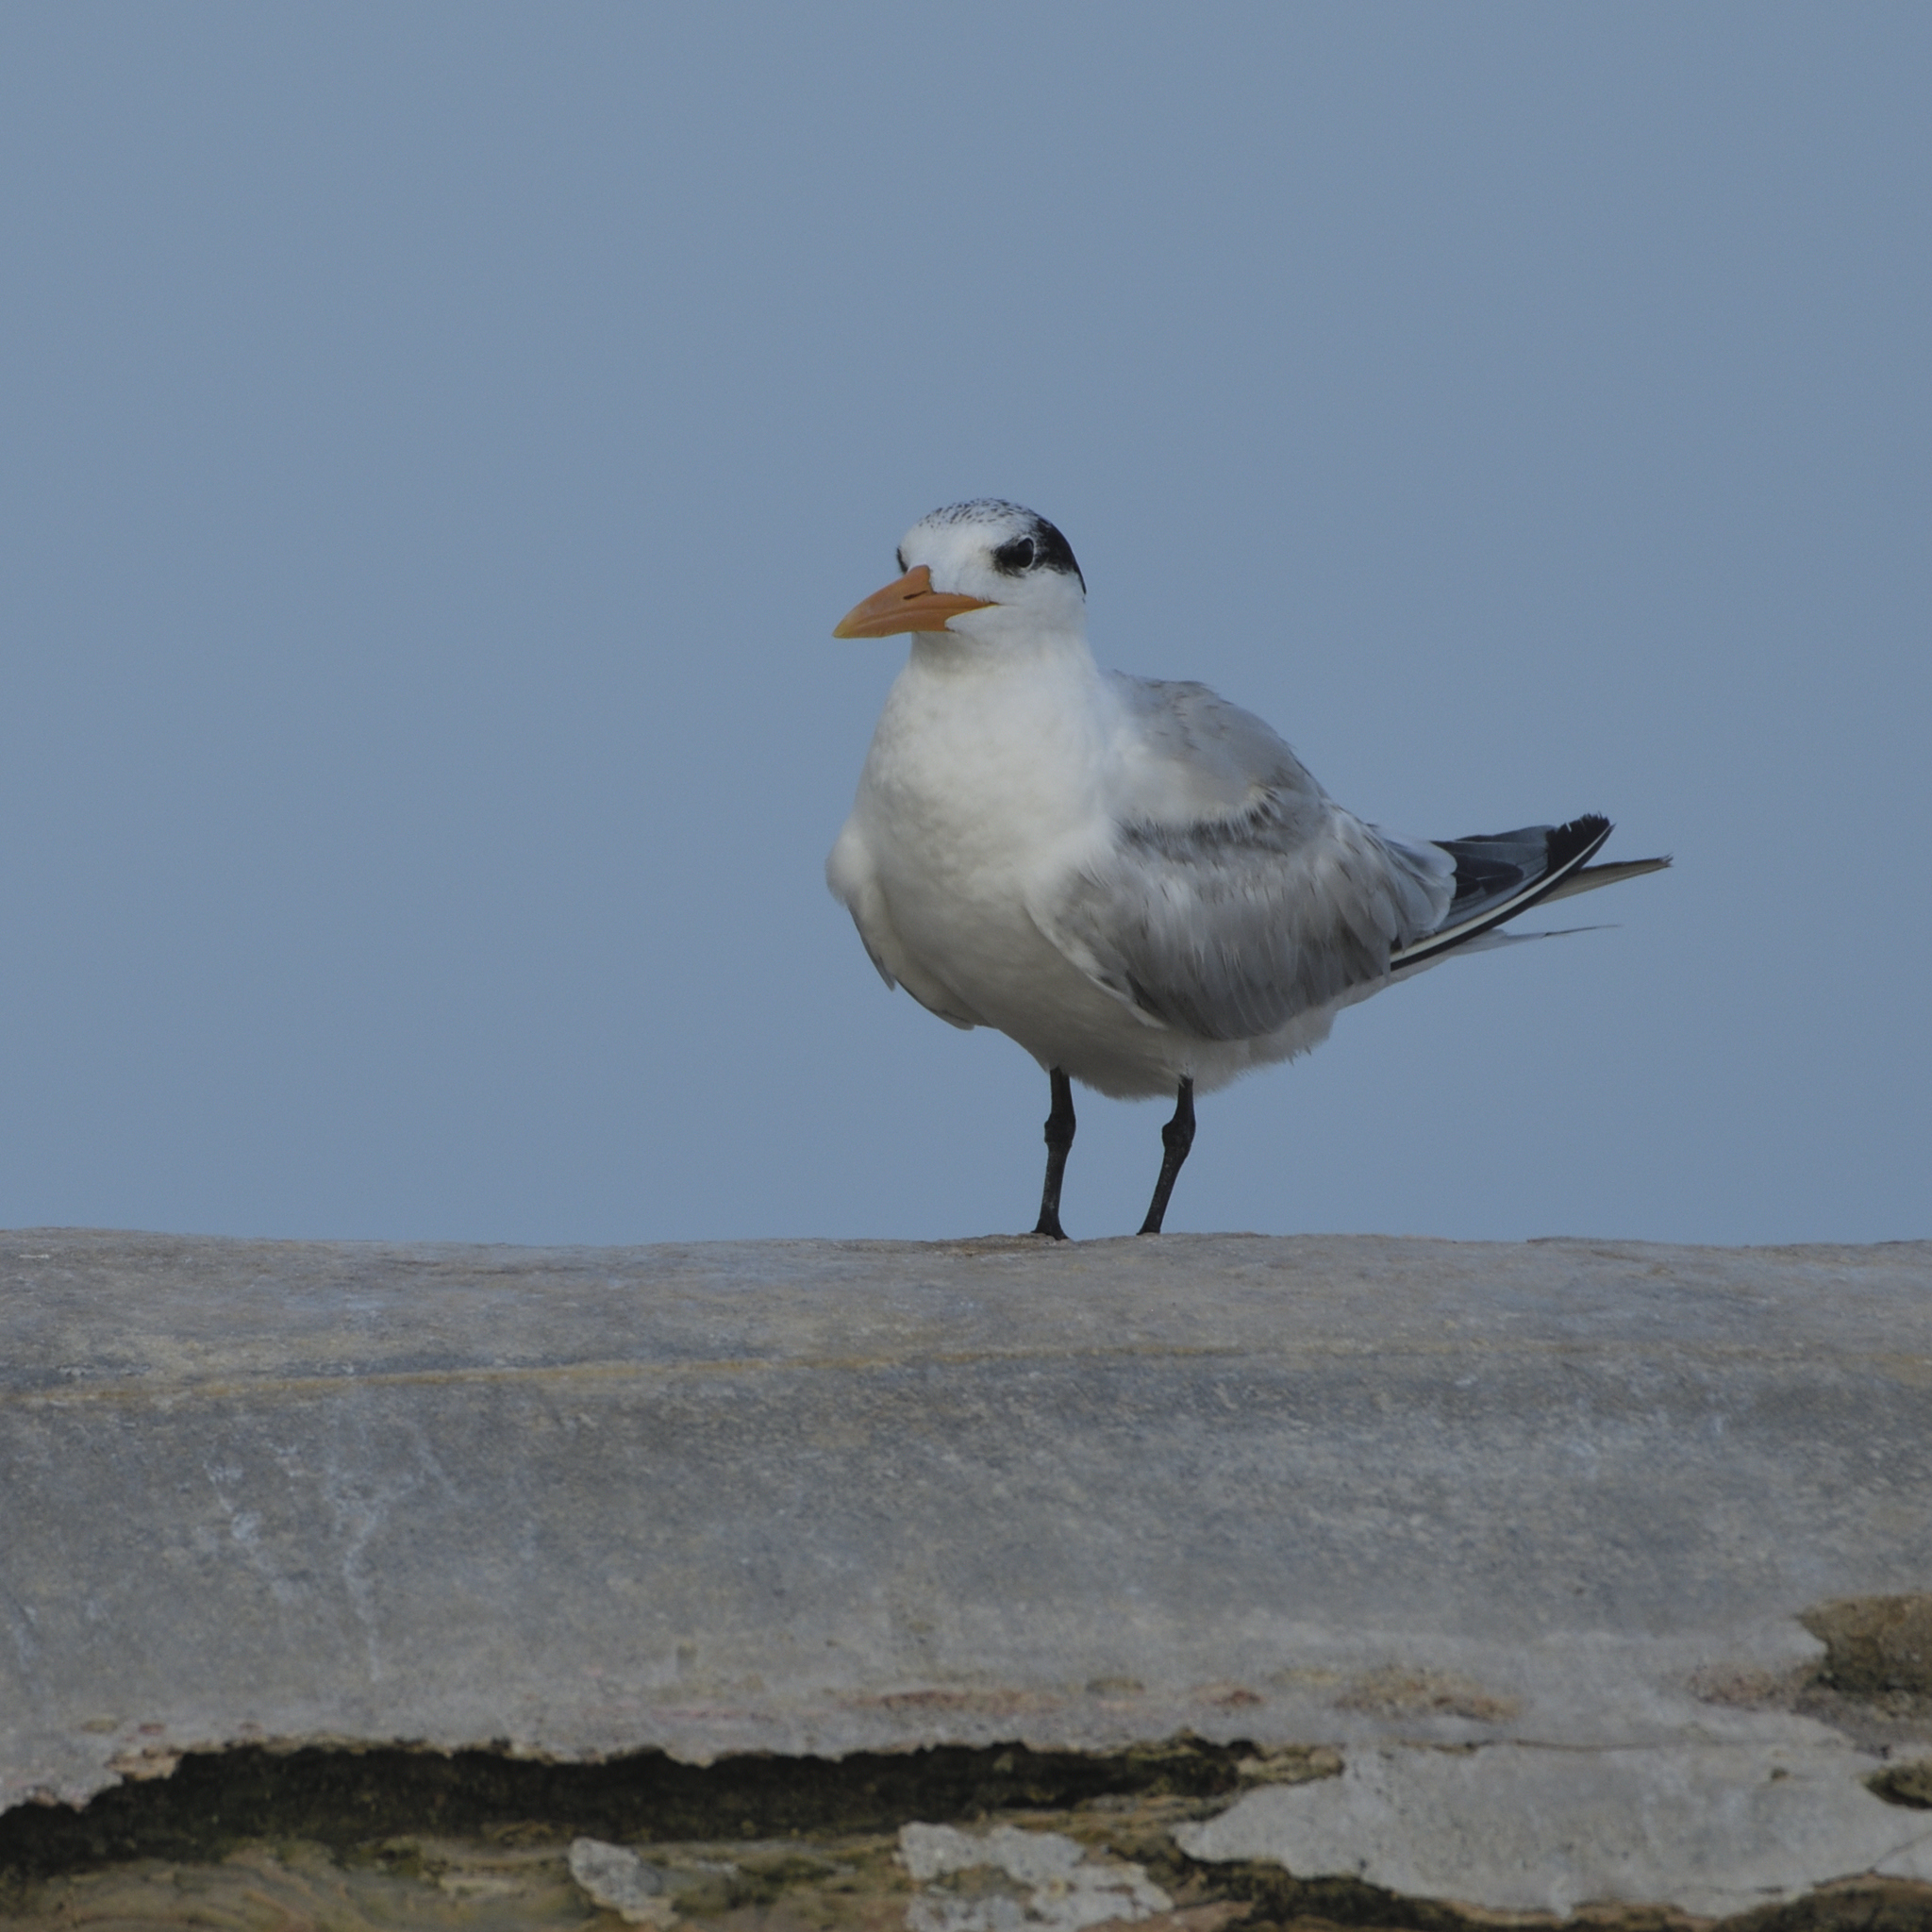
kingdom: Animalia
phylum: Chordata
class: Aves
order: Charadriiformes
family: Laridae
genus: Thalasseus
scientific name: Thalasseus maximus
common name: Royal tern
